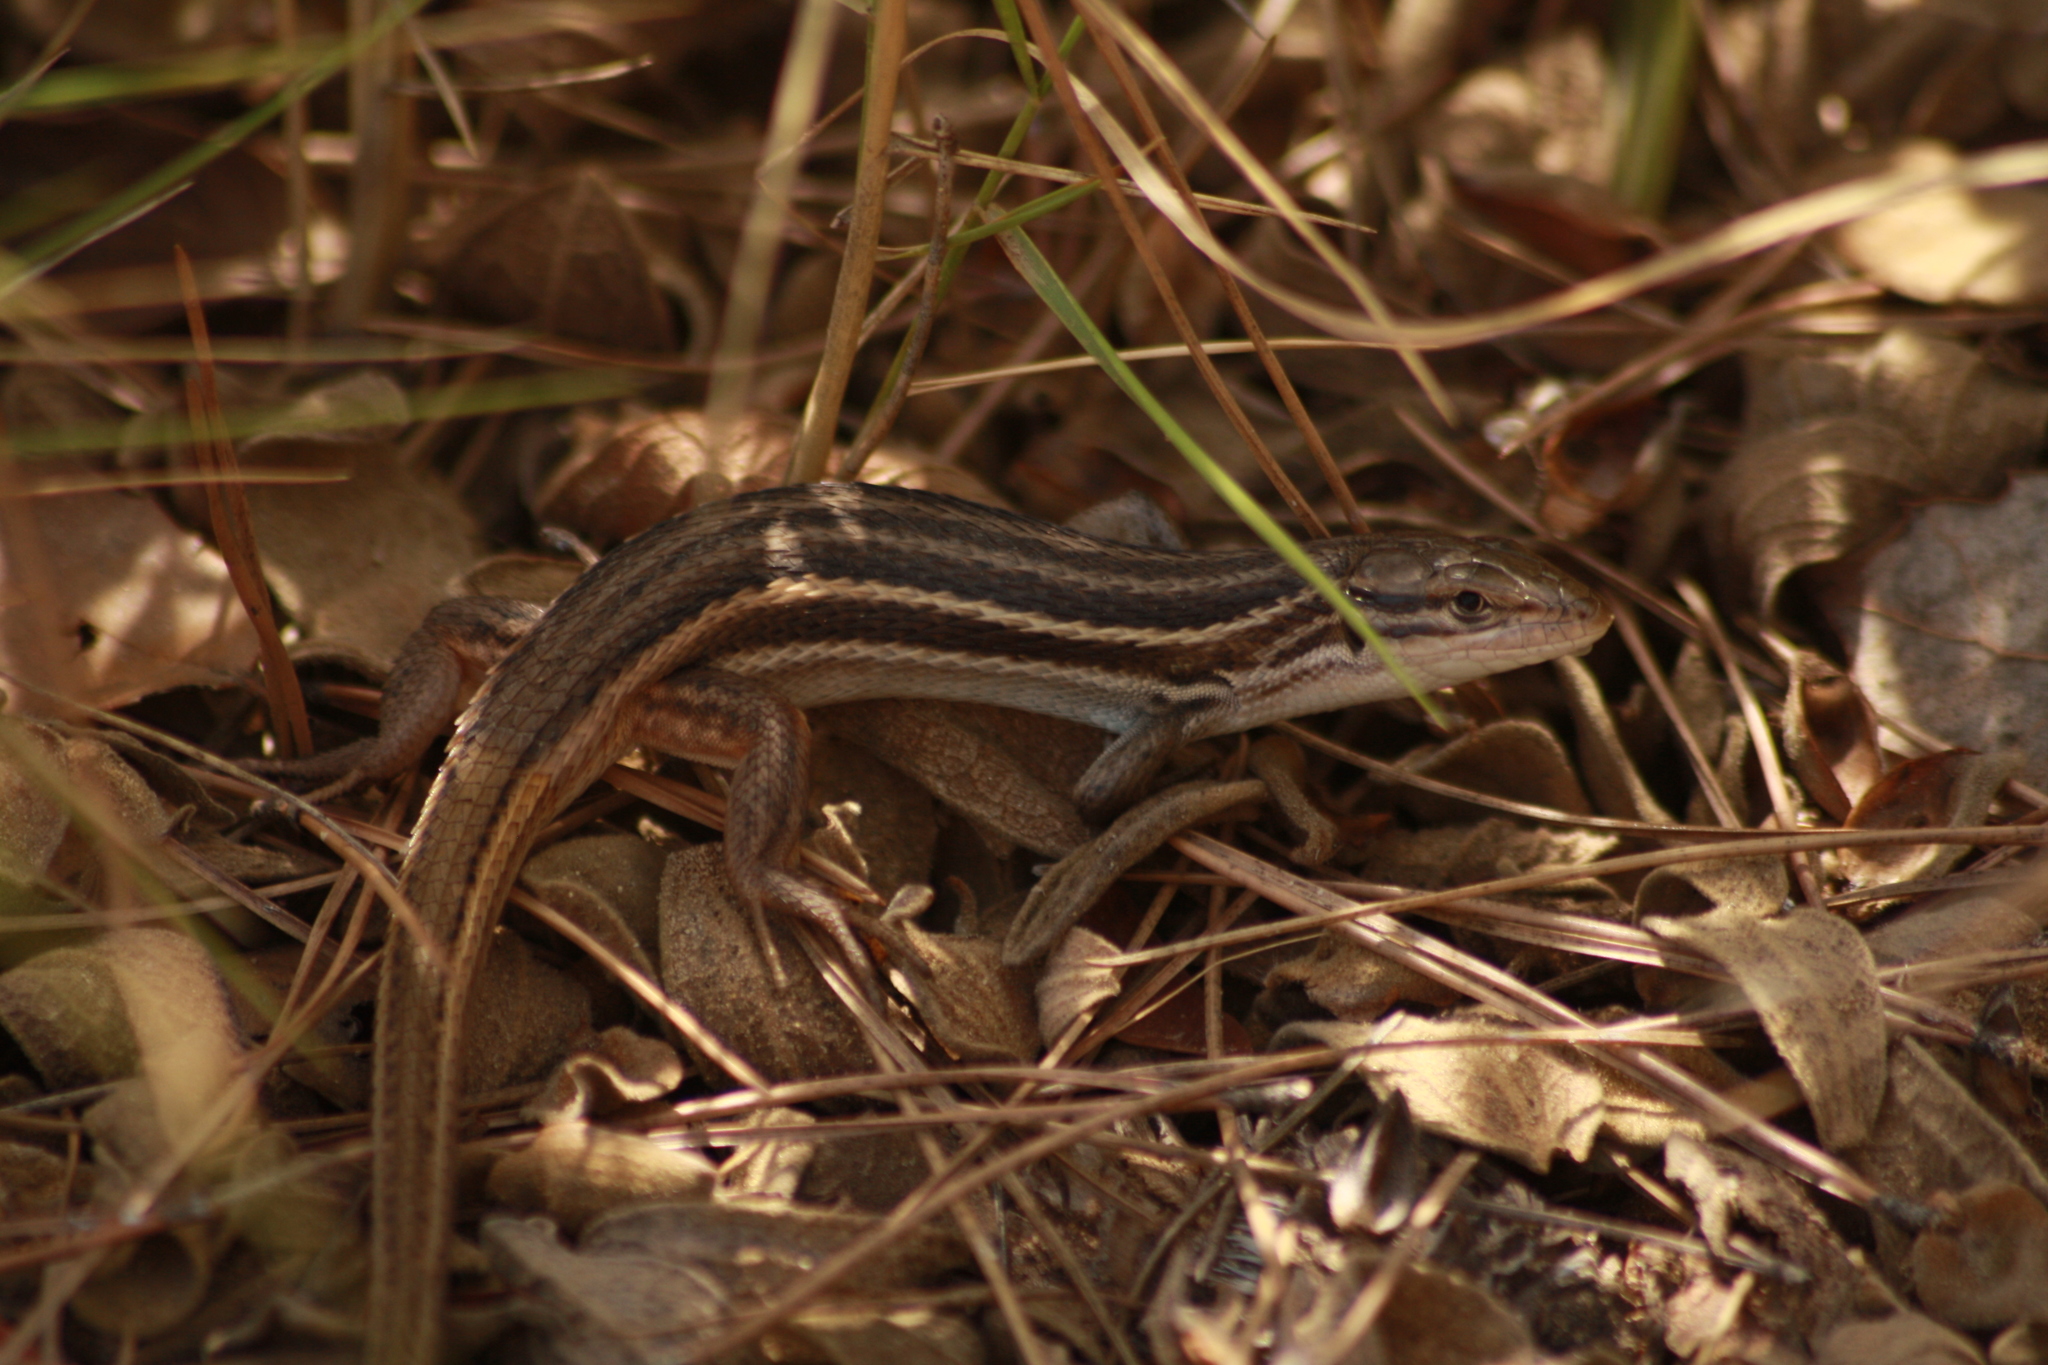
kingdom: Animalia
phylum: Chordata
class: Squamata
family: Lacertidae
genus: Psammodromus
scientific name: Psammodromus algirus
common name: Algerian psammodromus
